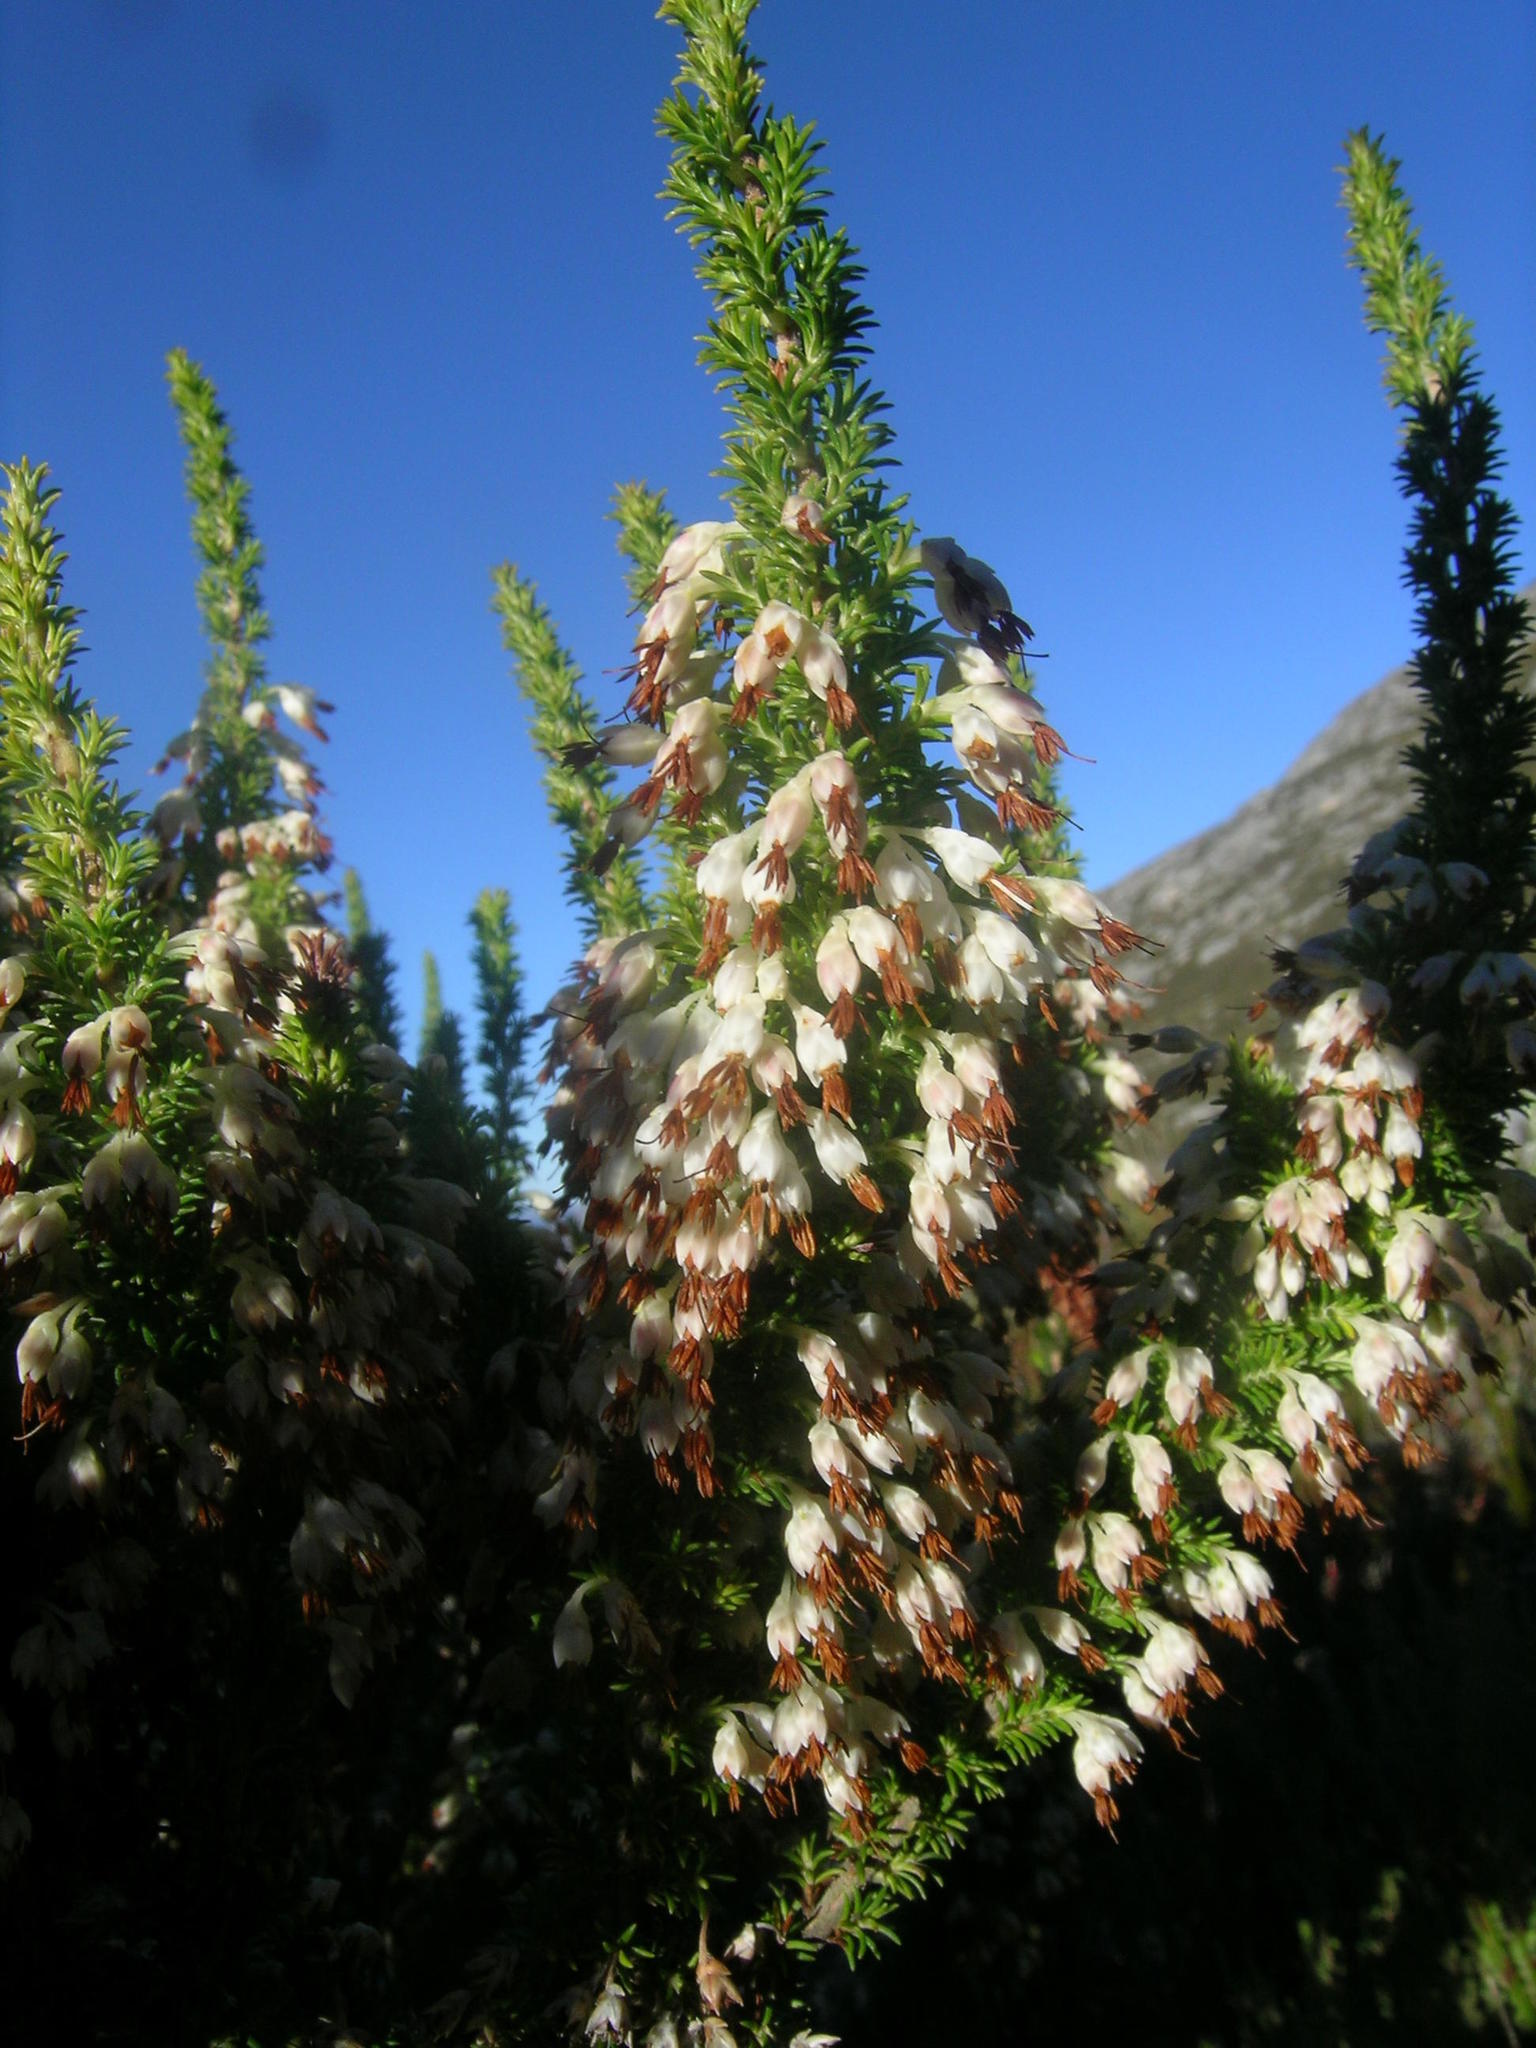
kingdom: Plantae
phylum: Tracheophyta
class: Magnoliopsida
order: Ericales
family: Ericaceae
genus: Erica
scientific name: Erica penicilliformis
